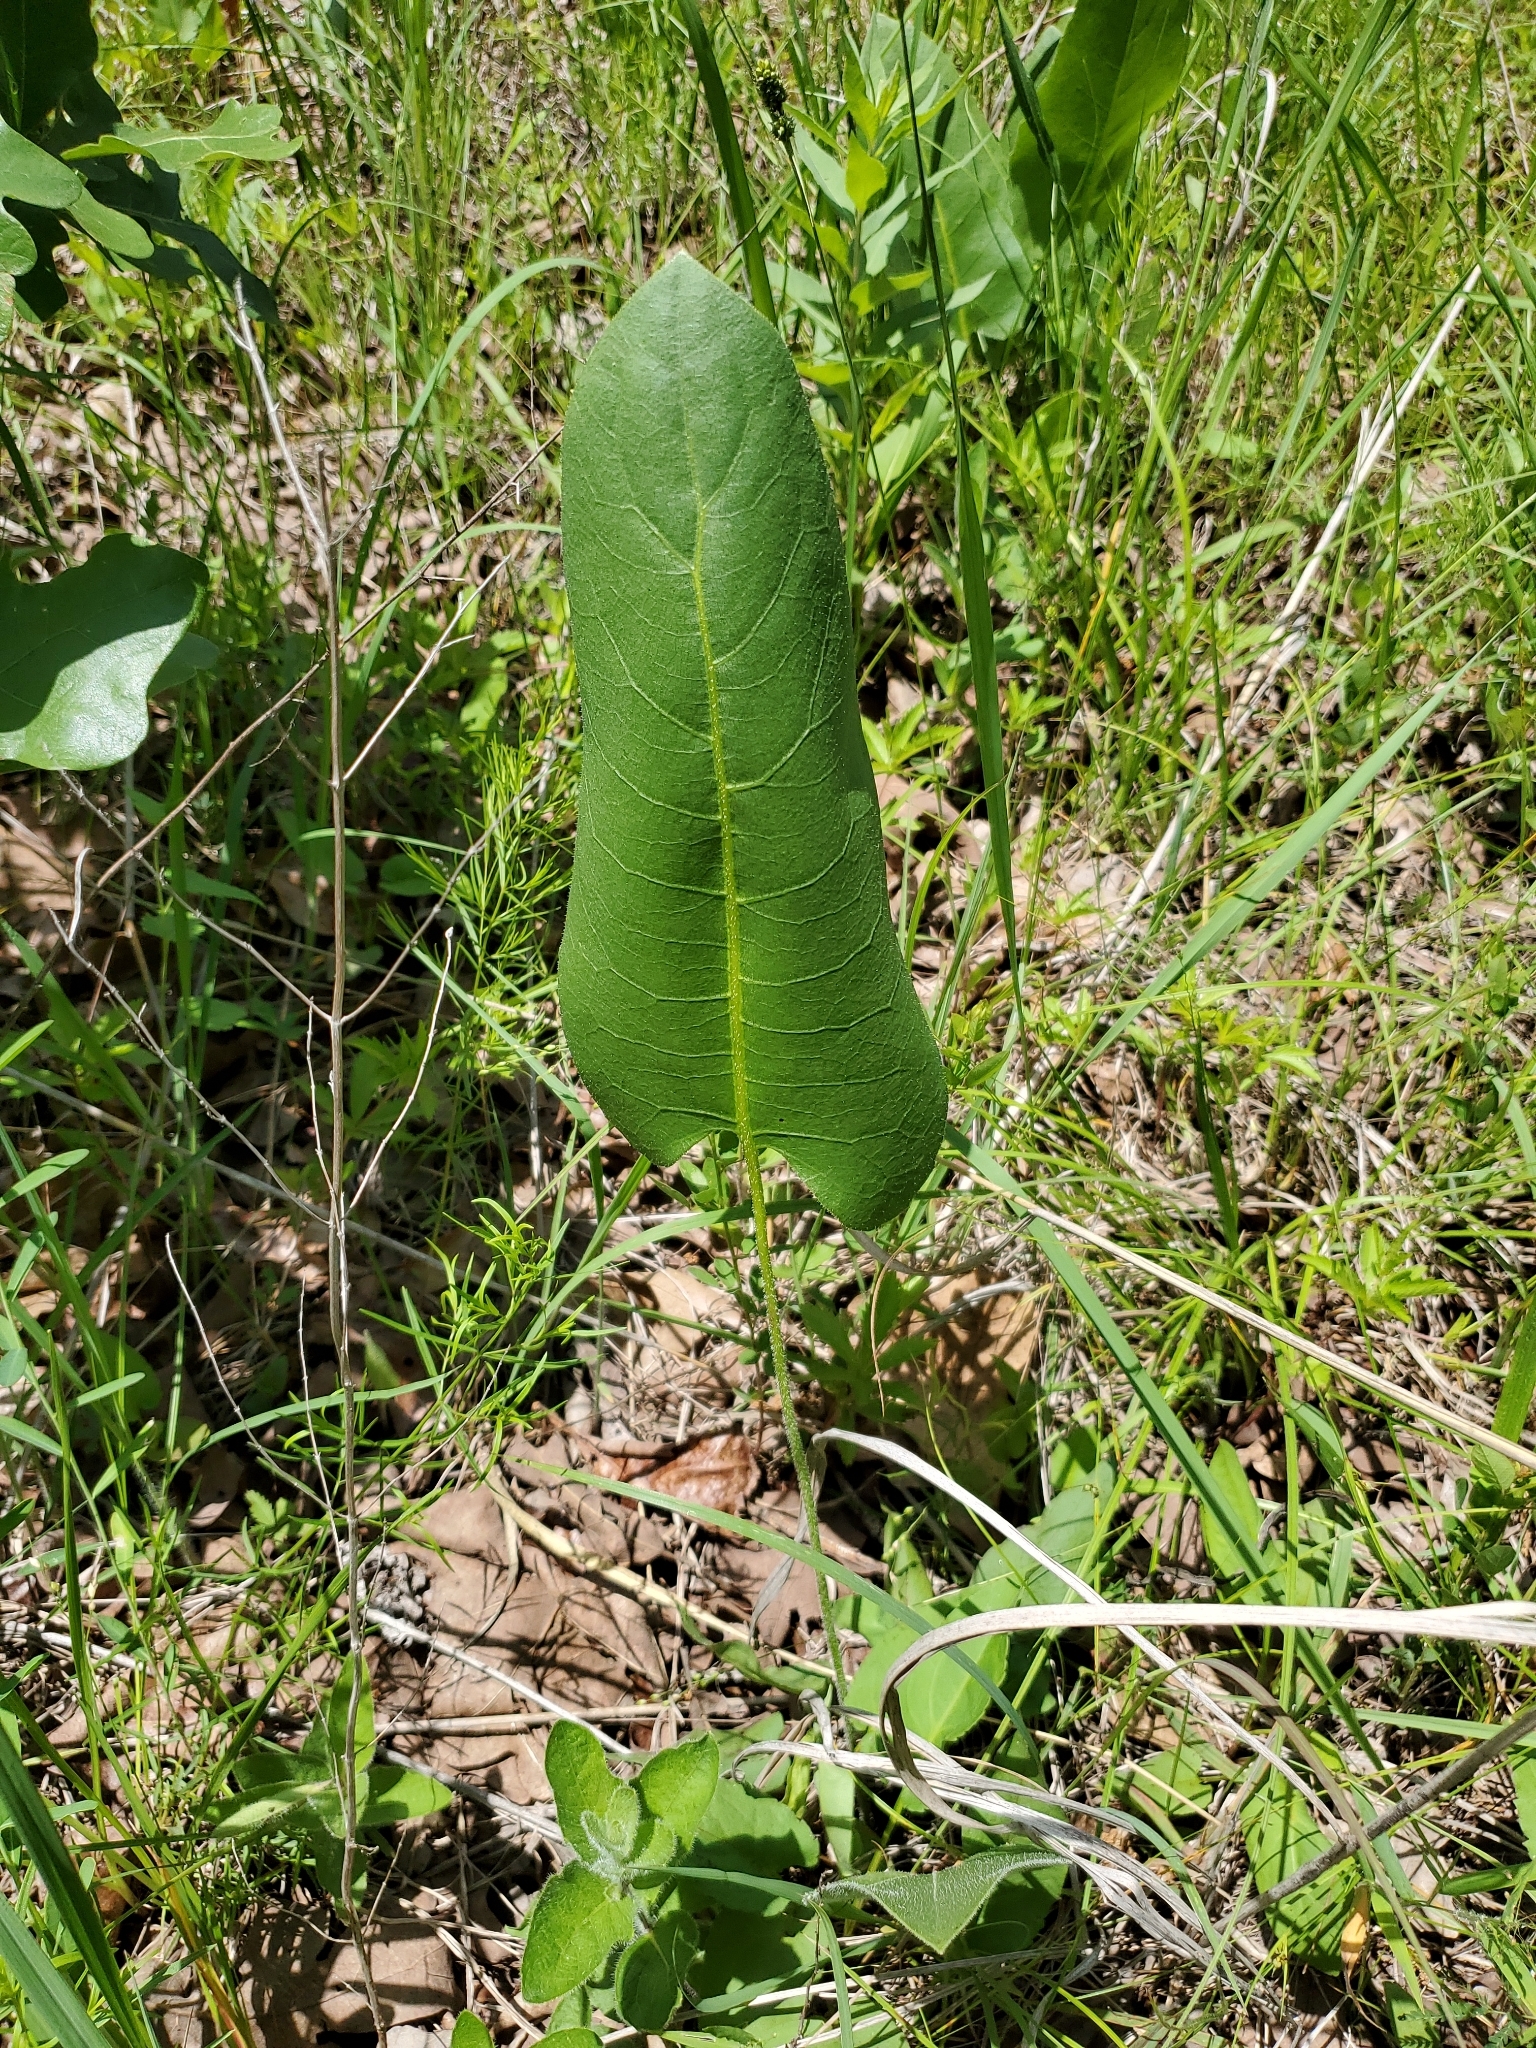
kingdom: Plantae
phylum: Tracheophyta
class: Magnoliopsida
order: Asterales
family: Asteraceae
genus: Silphium
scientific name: Silphium terebinthinaceum
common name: Basal-leaf rosinweed
